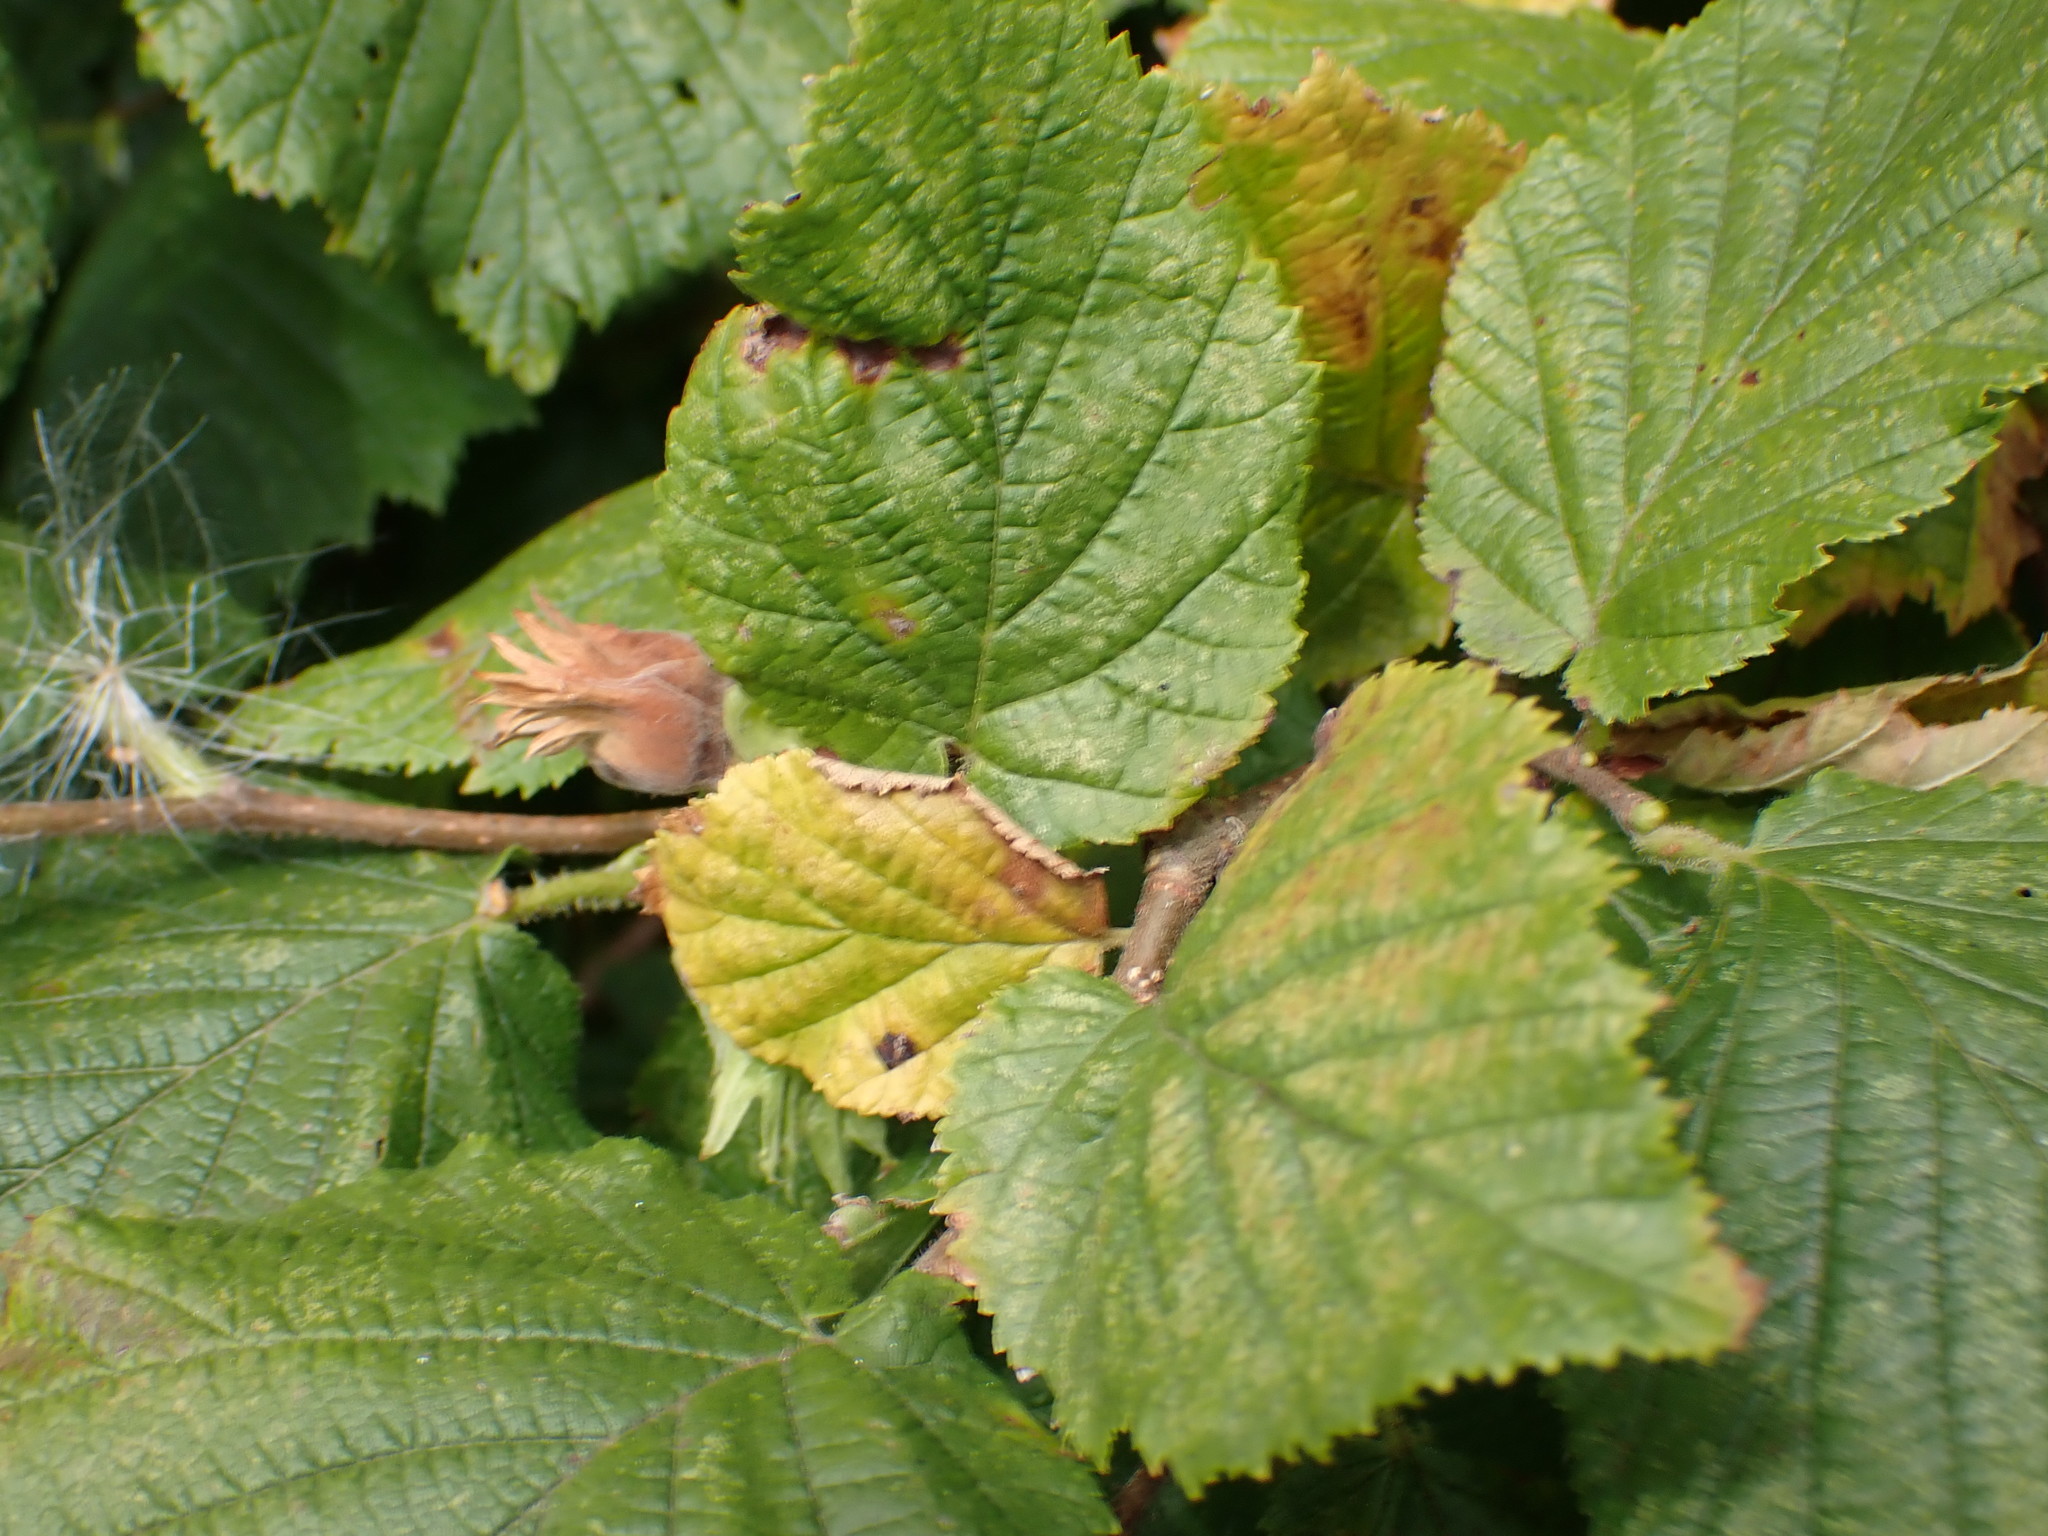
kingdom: Plantae
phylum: Tracheophyta
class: Magnoliopsida
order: Fagales
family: Betulaceae
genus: Corylus
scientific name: Corylus avellana
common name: European hazel
